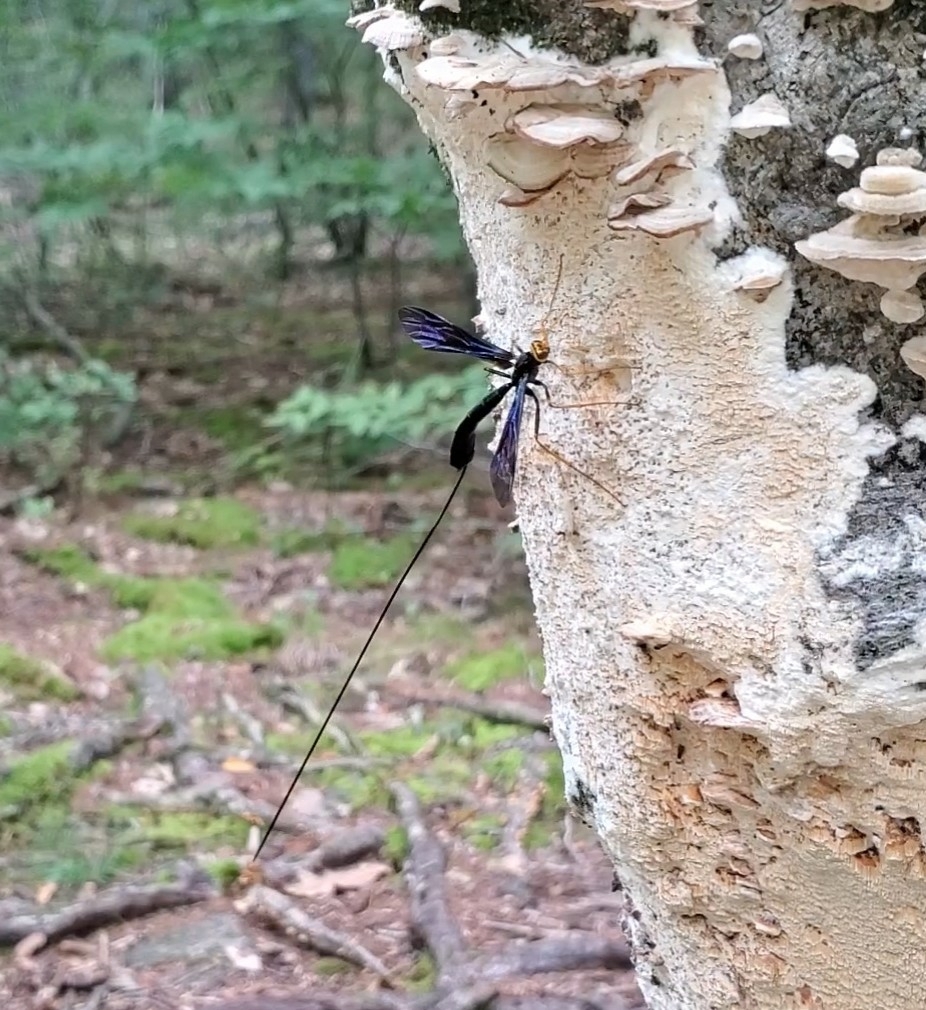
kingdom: Animalia
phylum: Arthropoda
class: Insecta
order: Hymenoptera
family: Ichneumonidae
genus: Megarhyssa
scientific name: Megarhyssa atrata
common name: Black giant ichneumonid wasp
